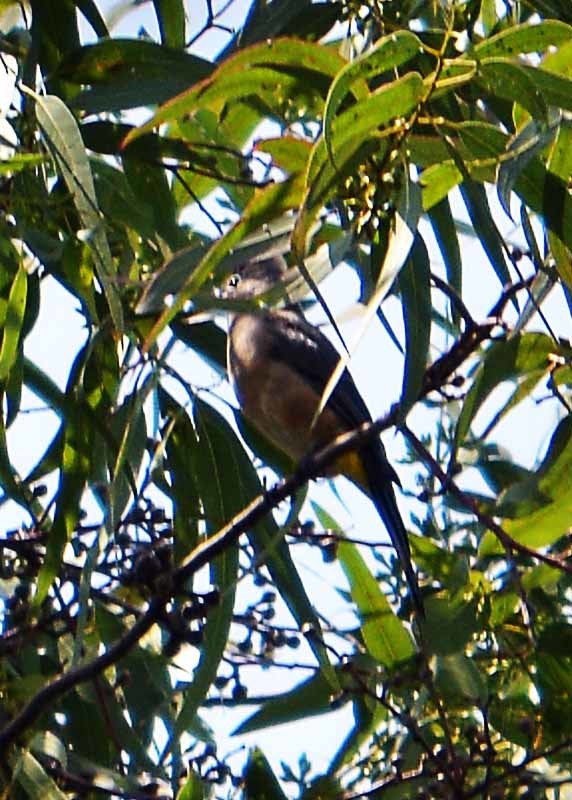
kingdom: Animalia
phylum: Chordata
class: Aves
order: Passeriformes
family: Ptilogonatidae
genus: Ptilogonys
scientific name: Ptilogonys cinereus
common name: Gray silky-flycatcher
